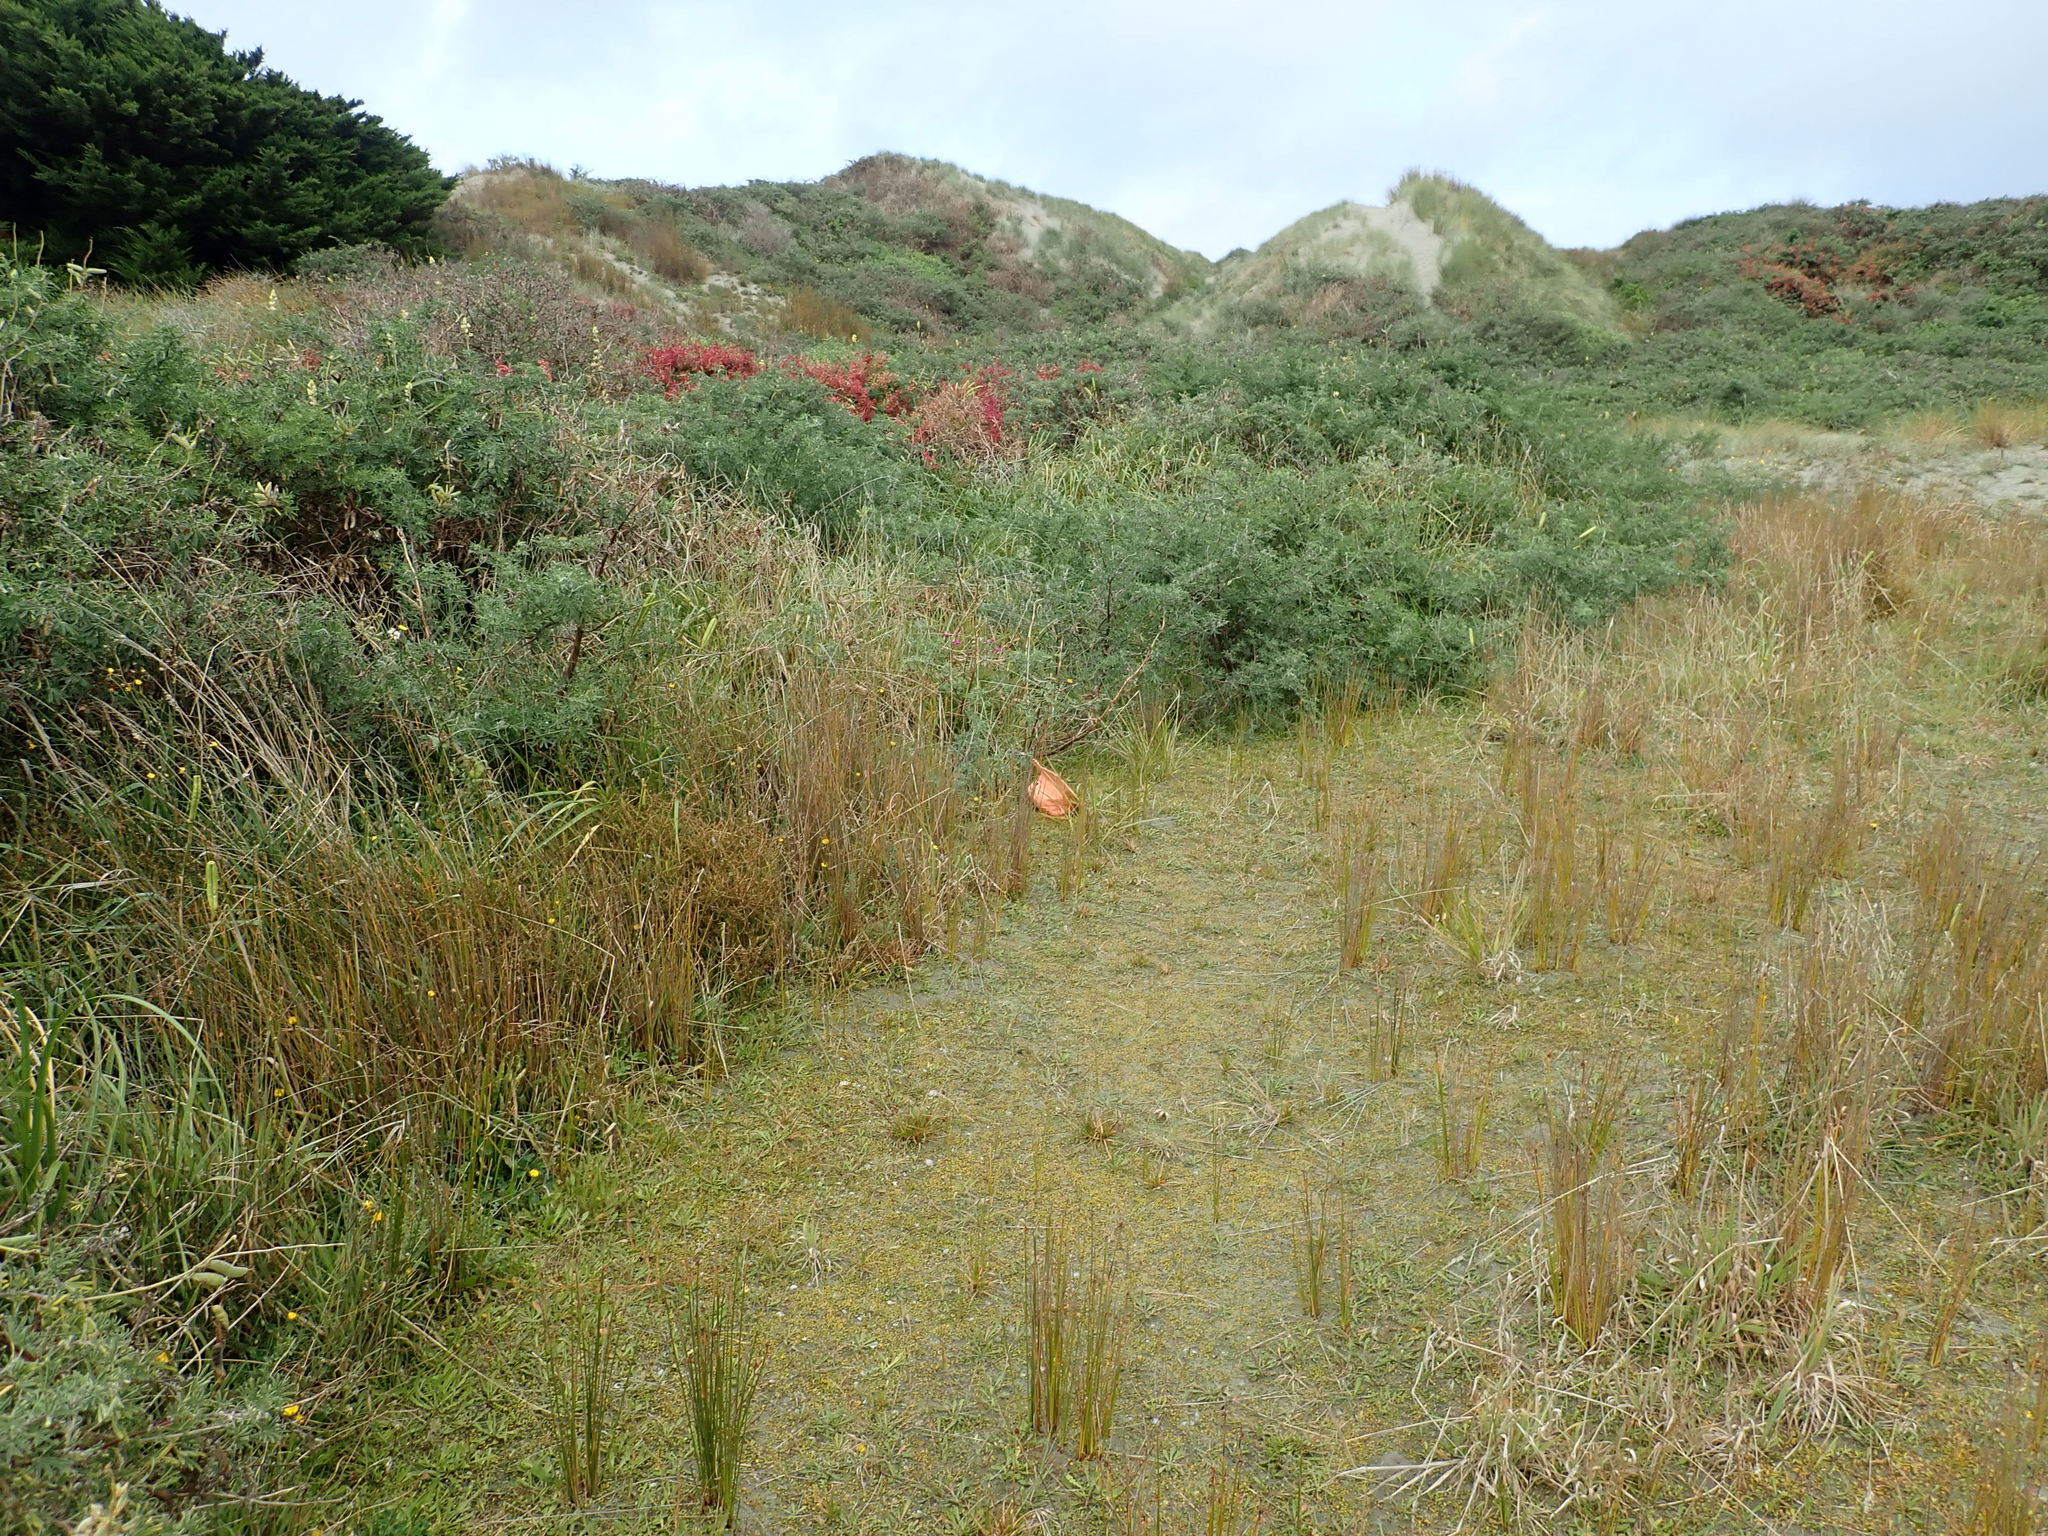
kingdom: Plantae
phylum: Tracheophyta
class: Magnoliopsida
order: Asterales
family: Goodeniaceae
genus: Goodenia
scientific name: Goodenia radicans
